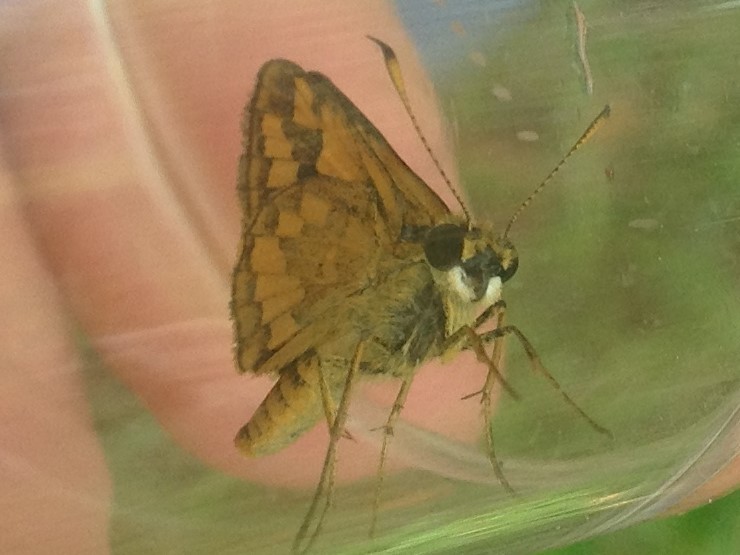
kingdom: Animalia
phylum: Arthropoda
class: Insecta
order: Lepidoptera
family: Hesperiidae
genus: Suniana
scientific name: Suniana sunias
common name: Wide-brand grass-dart
